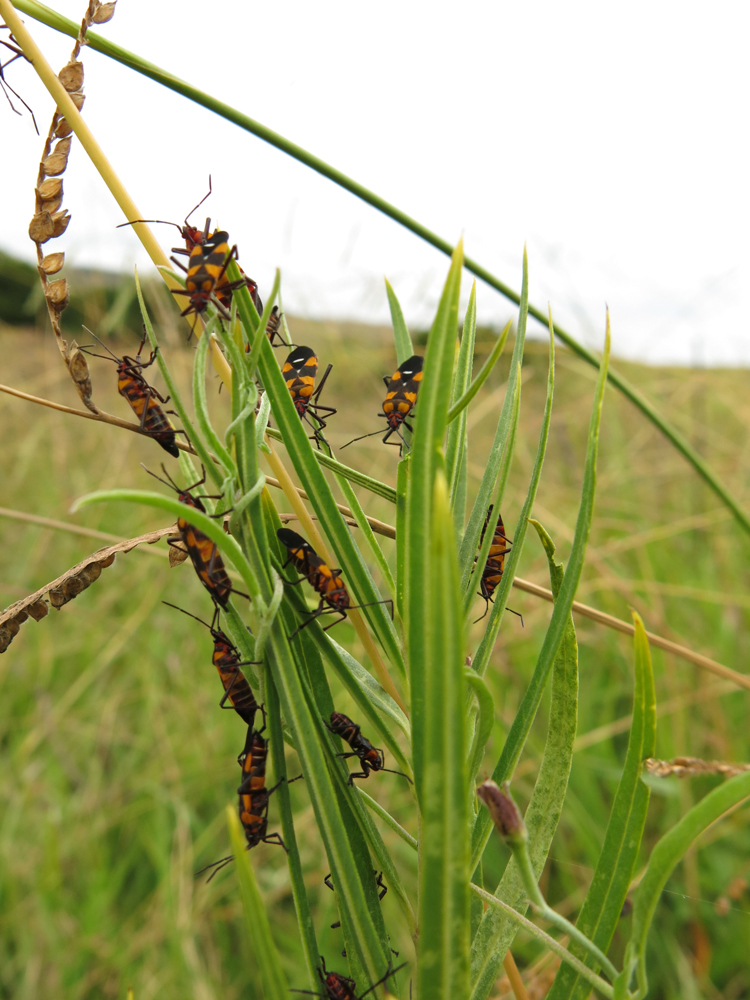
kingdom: Animalia
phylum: Arthropoda
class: Insecta
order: Hemiptera
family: Lygaeidae
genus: Oncopeltus
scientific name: Oncopeltus famelicus
